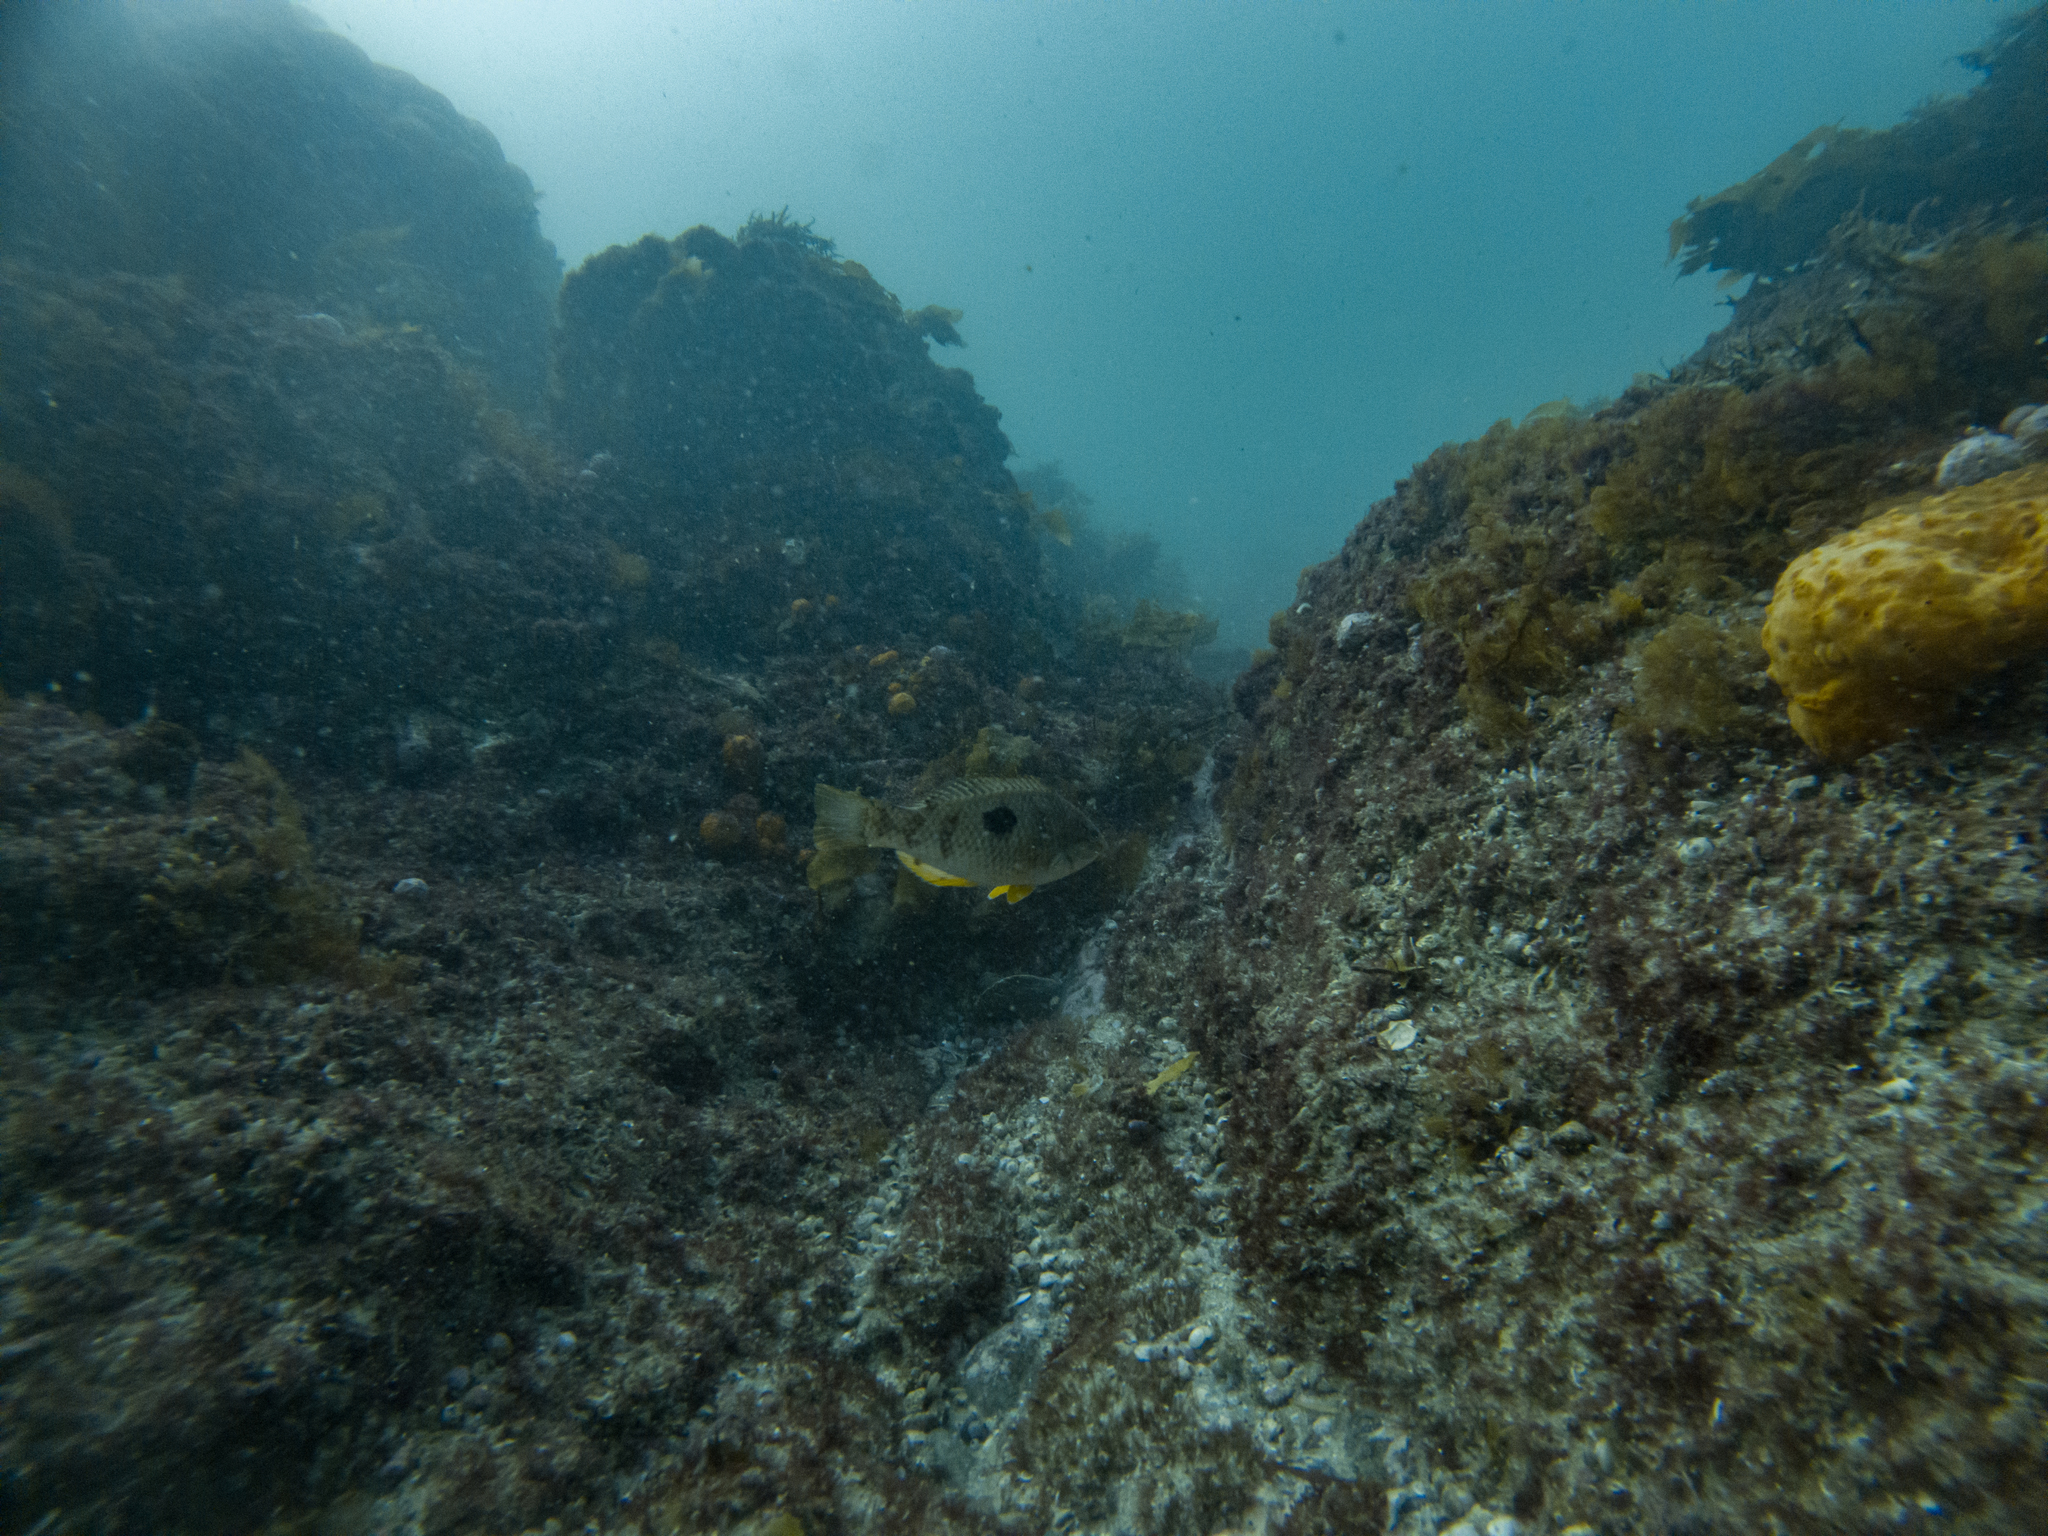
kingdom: Animalia
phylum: Chordata
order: Perciformes
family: Labridae
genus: Notolabrus
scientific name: Notolabrus celidotus
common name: Spotty
